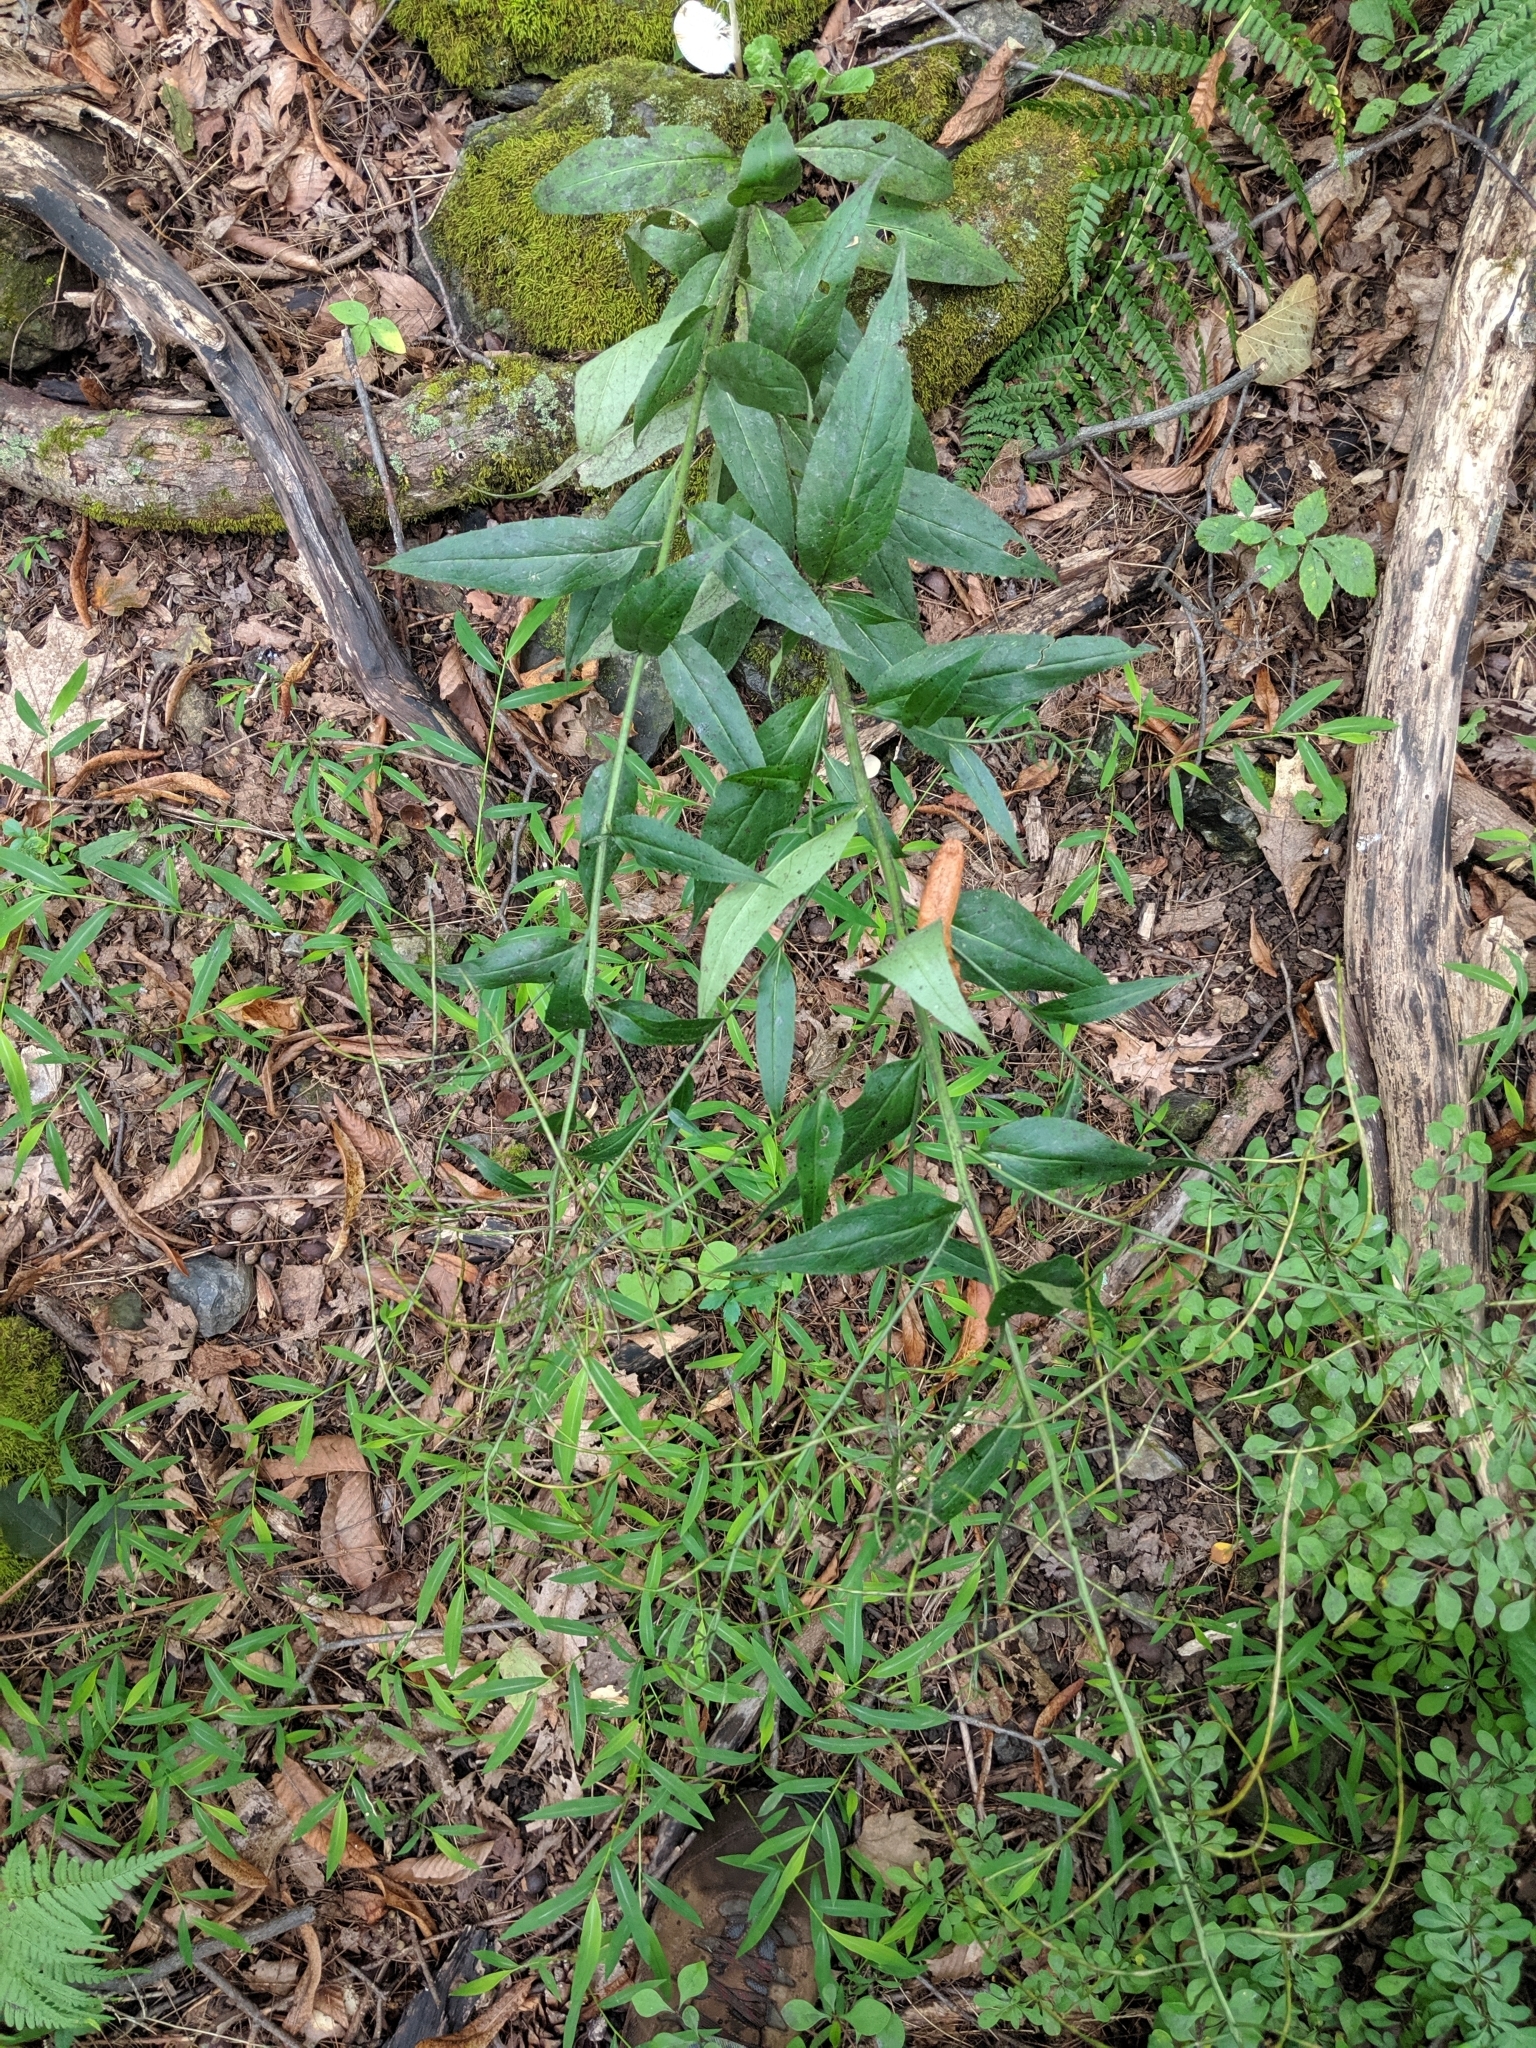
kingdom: Plantae
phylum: Tracheophyta
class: Magnoliopsida
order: Brassicales
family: Brassicaceae
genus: Hesperis
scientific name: Hesperis matronalis
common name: Dame's-violet
